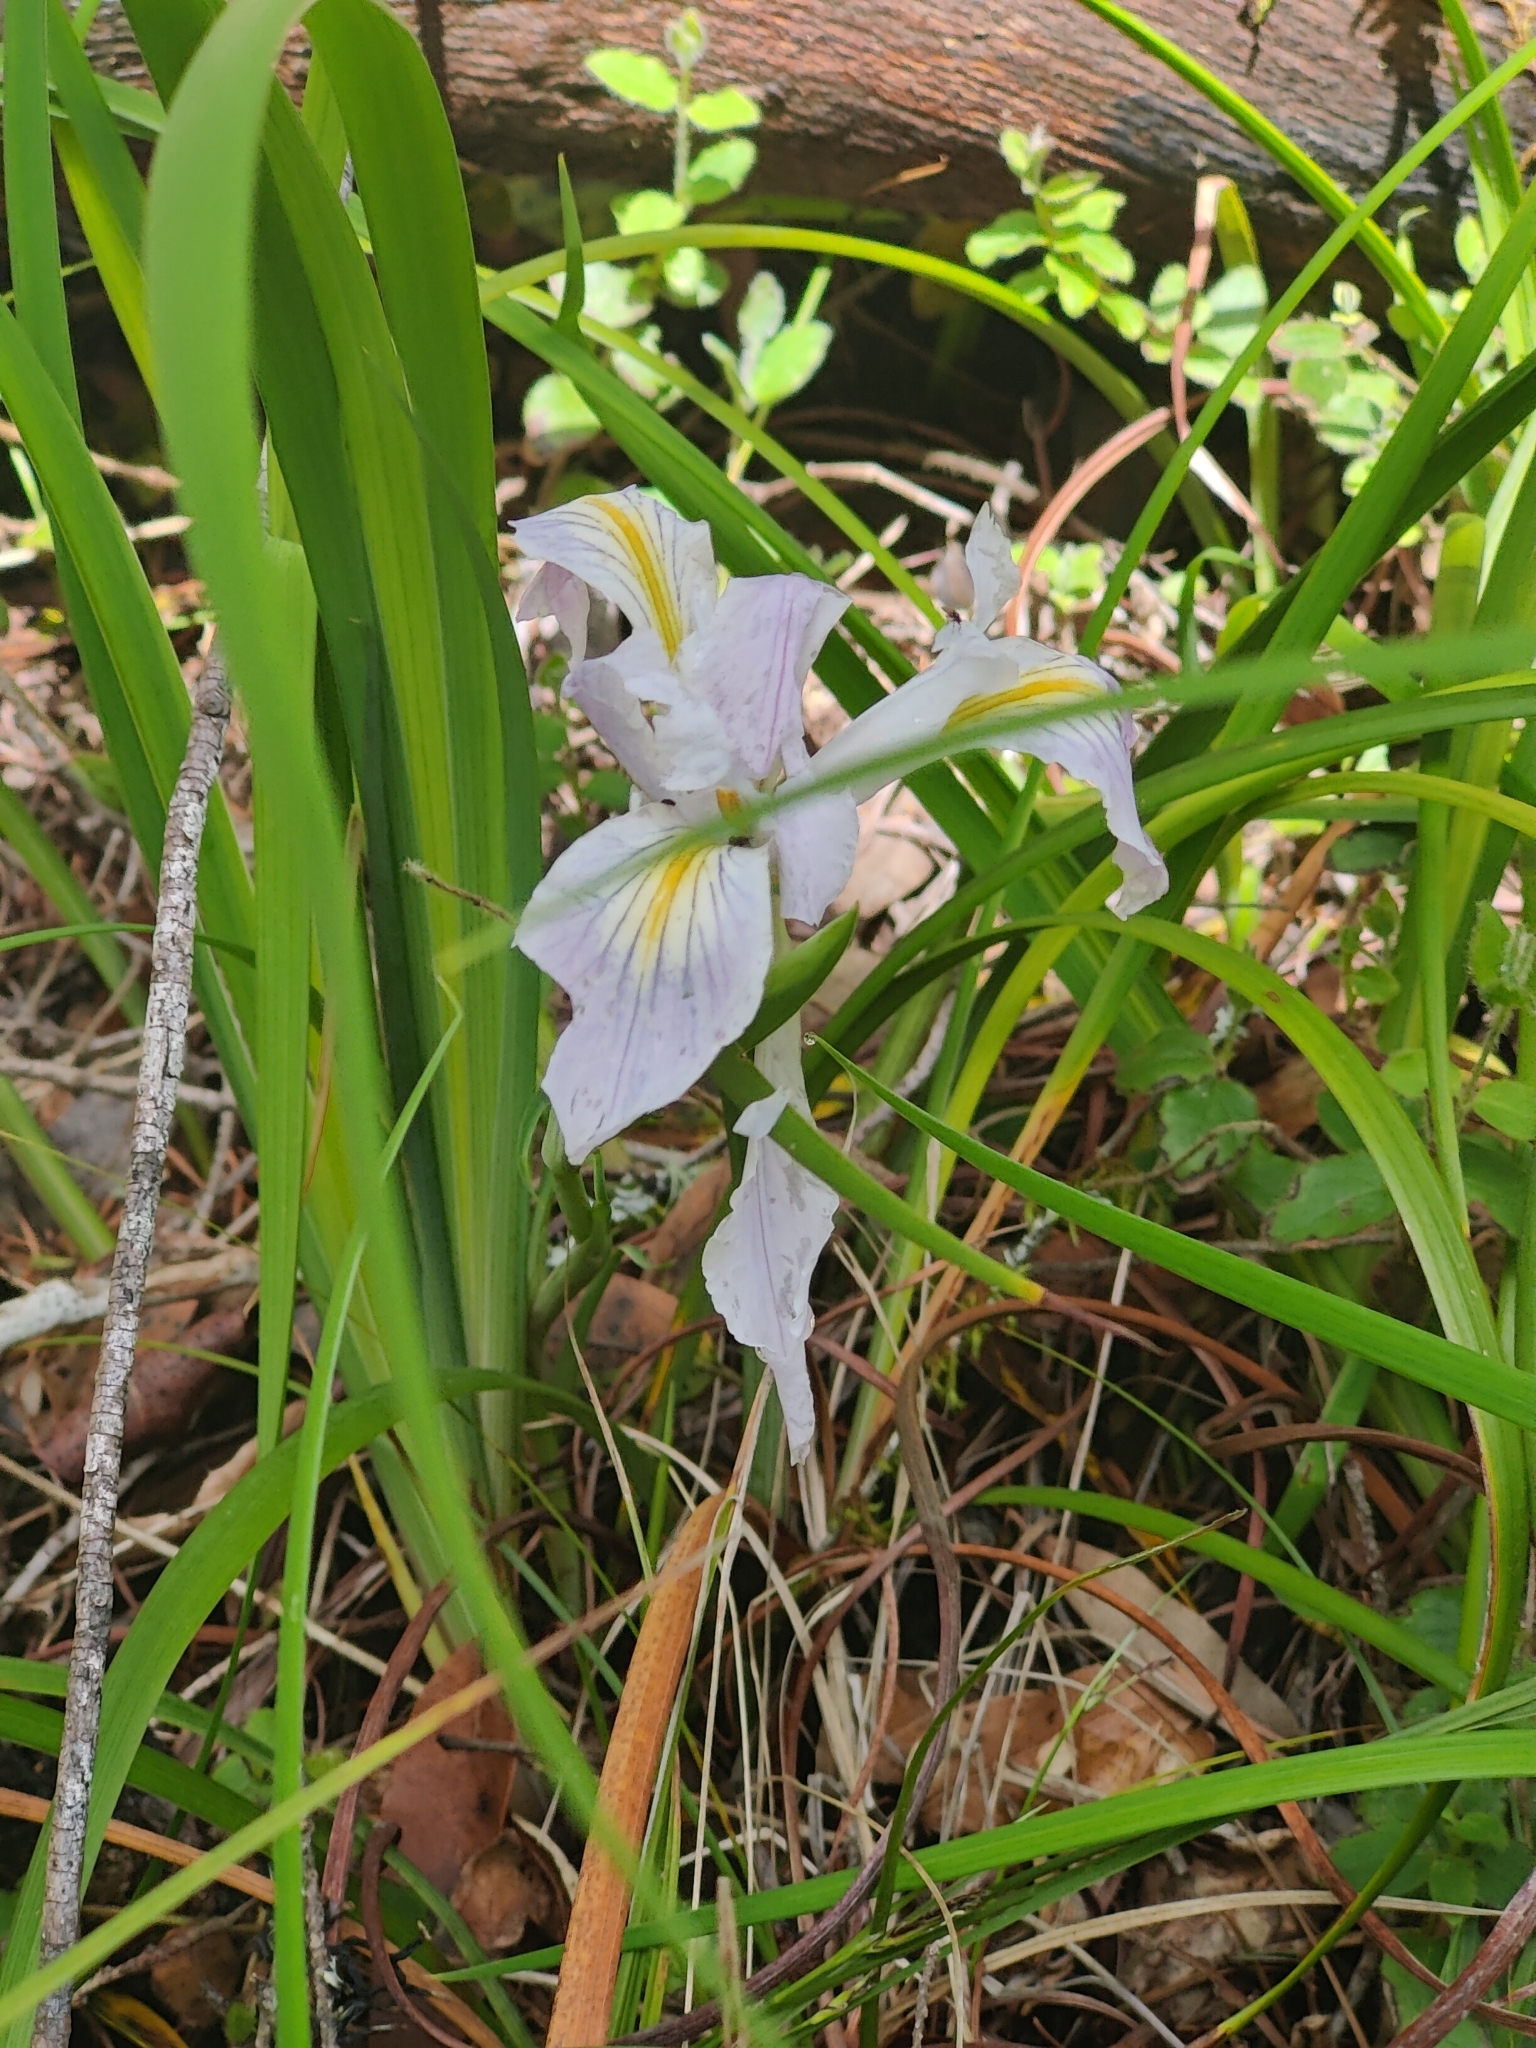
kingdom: Plantae
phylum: Tracheophyta
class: Liliopsida
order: Asparagales
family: Iridaceae
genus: Iris
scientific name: Iris douglasiana
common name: Marin iris
